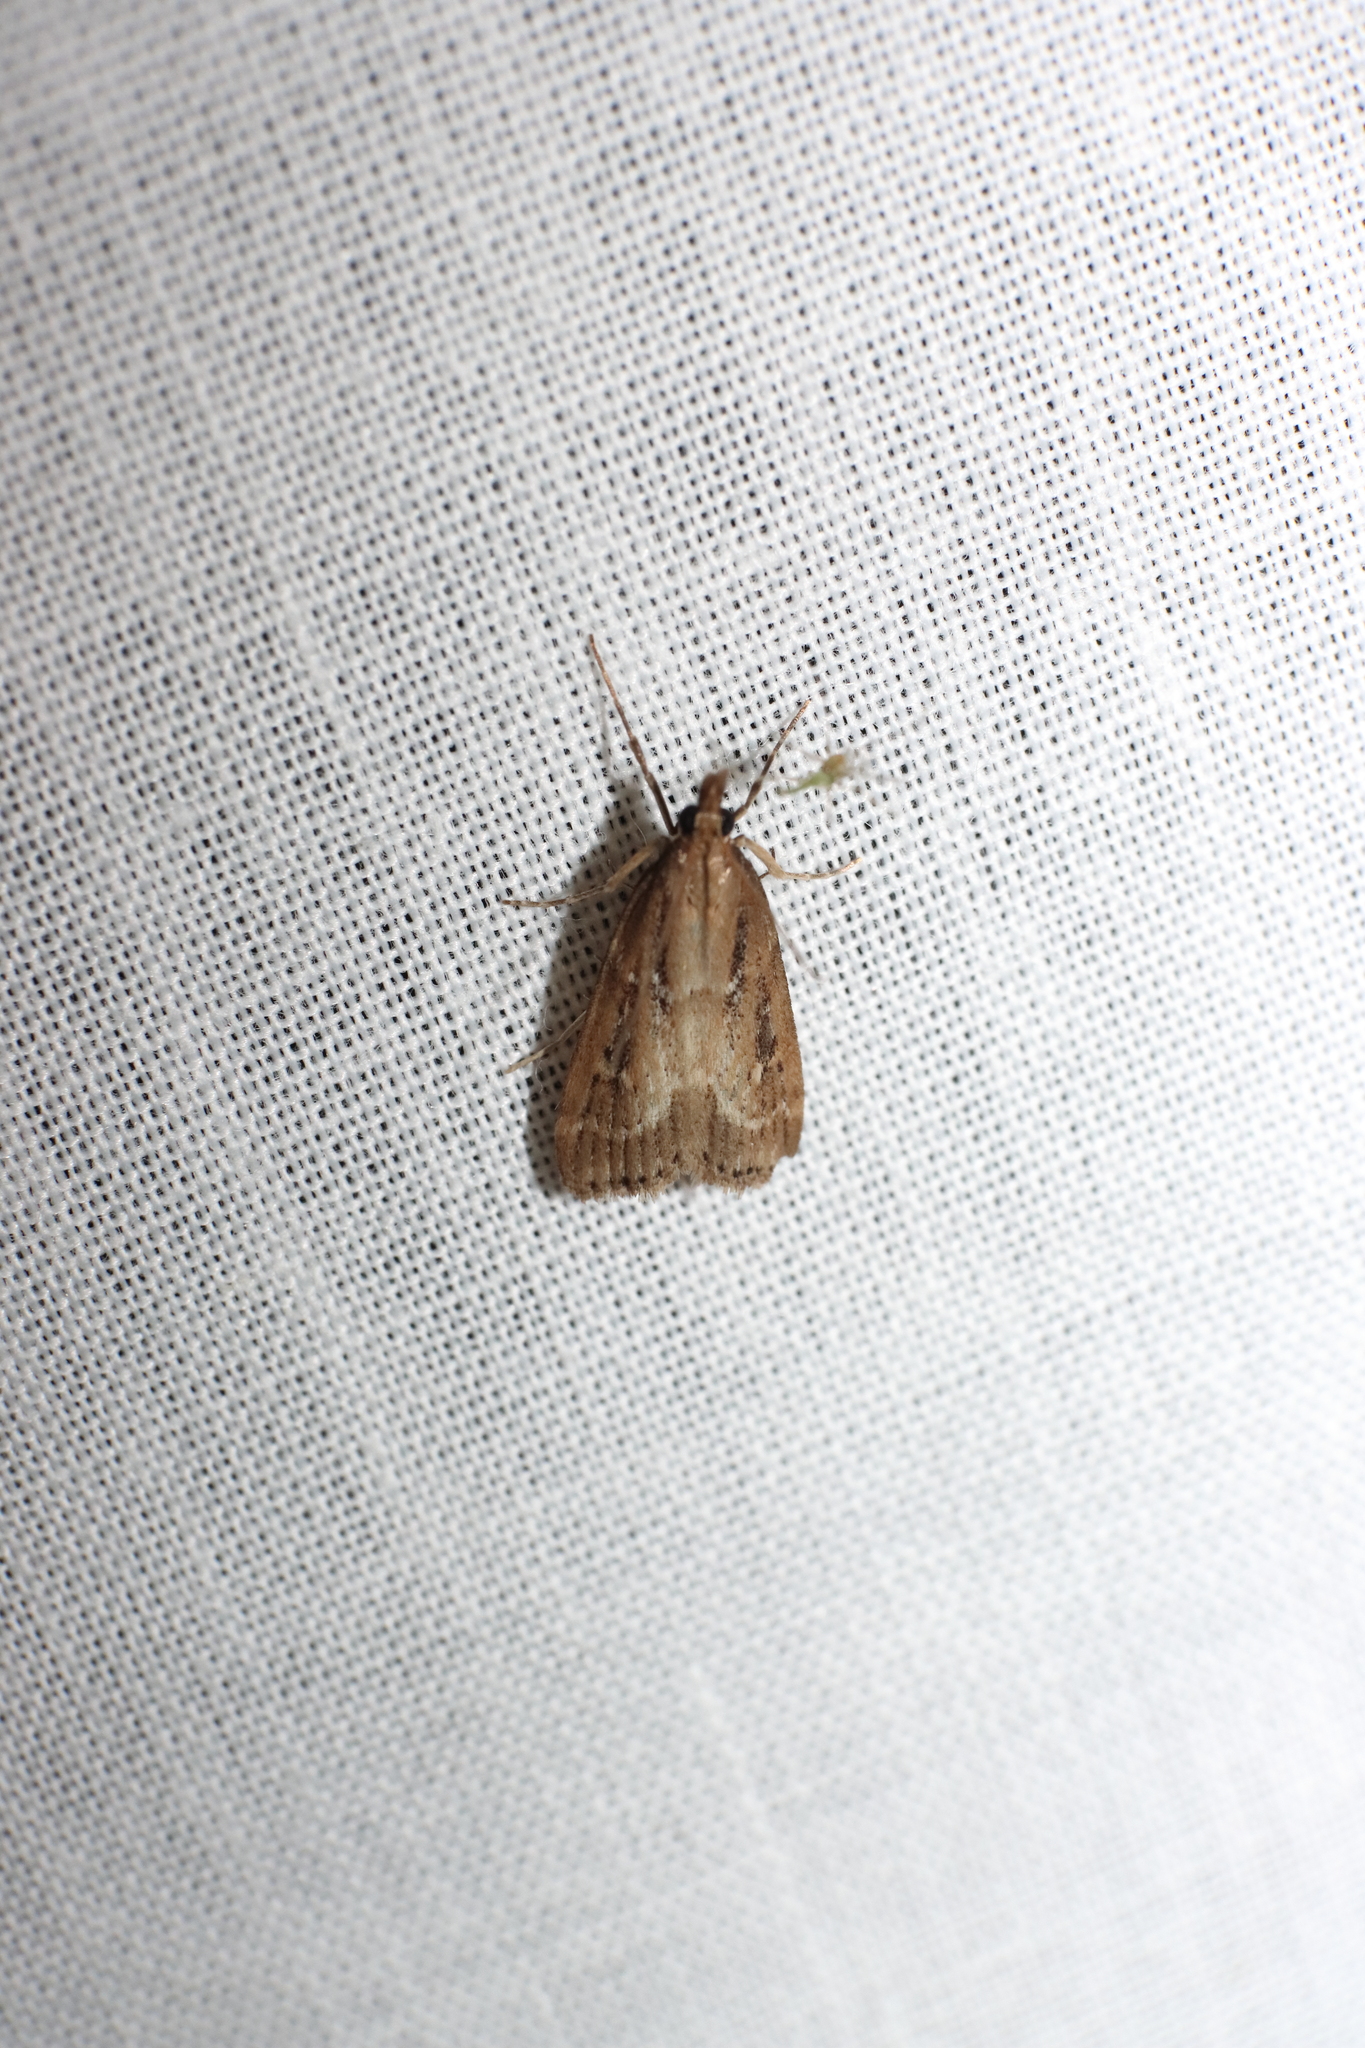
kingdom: Animalia
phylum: Arthropoda
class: Insecta
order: Lepidoptera
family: Crambidae
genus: Eudonia
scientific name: Eudonia octophora
